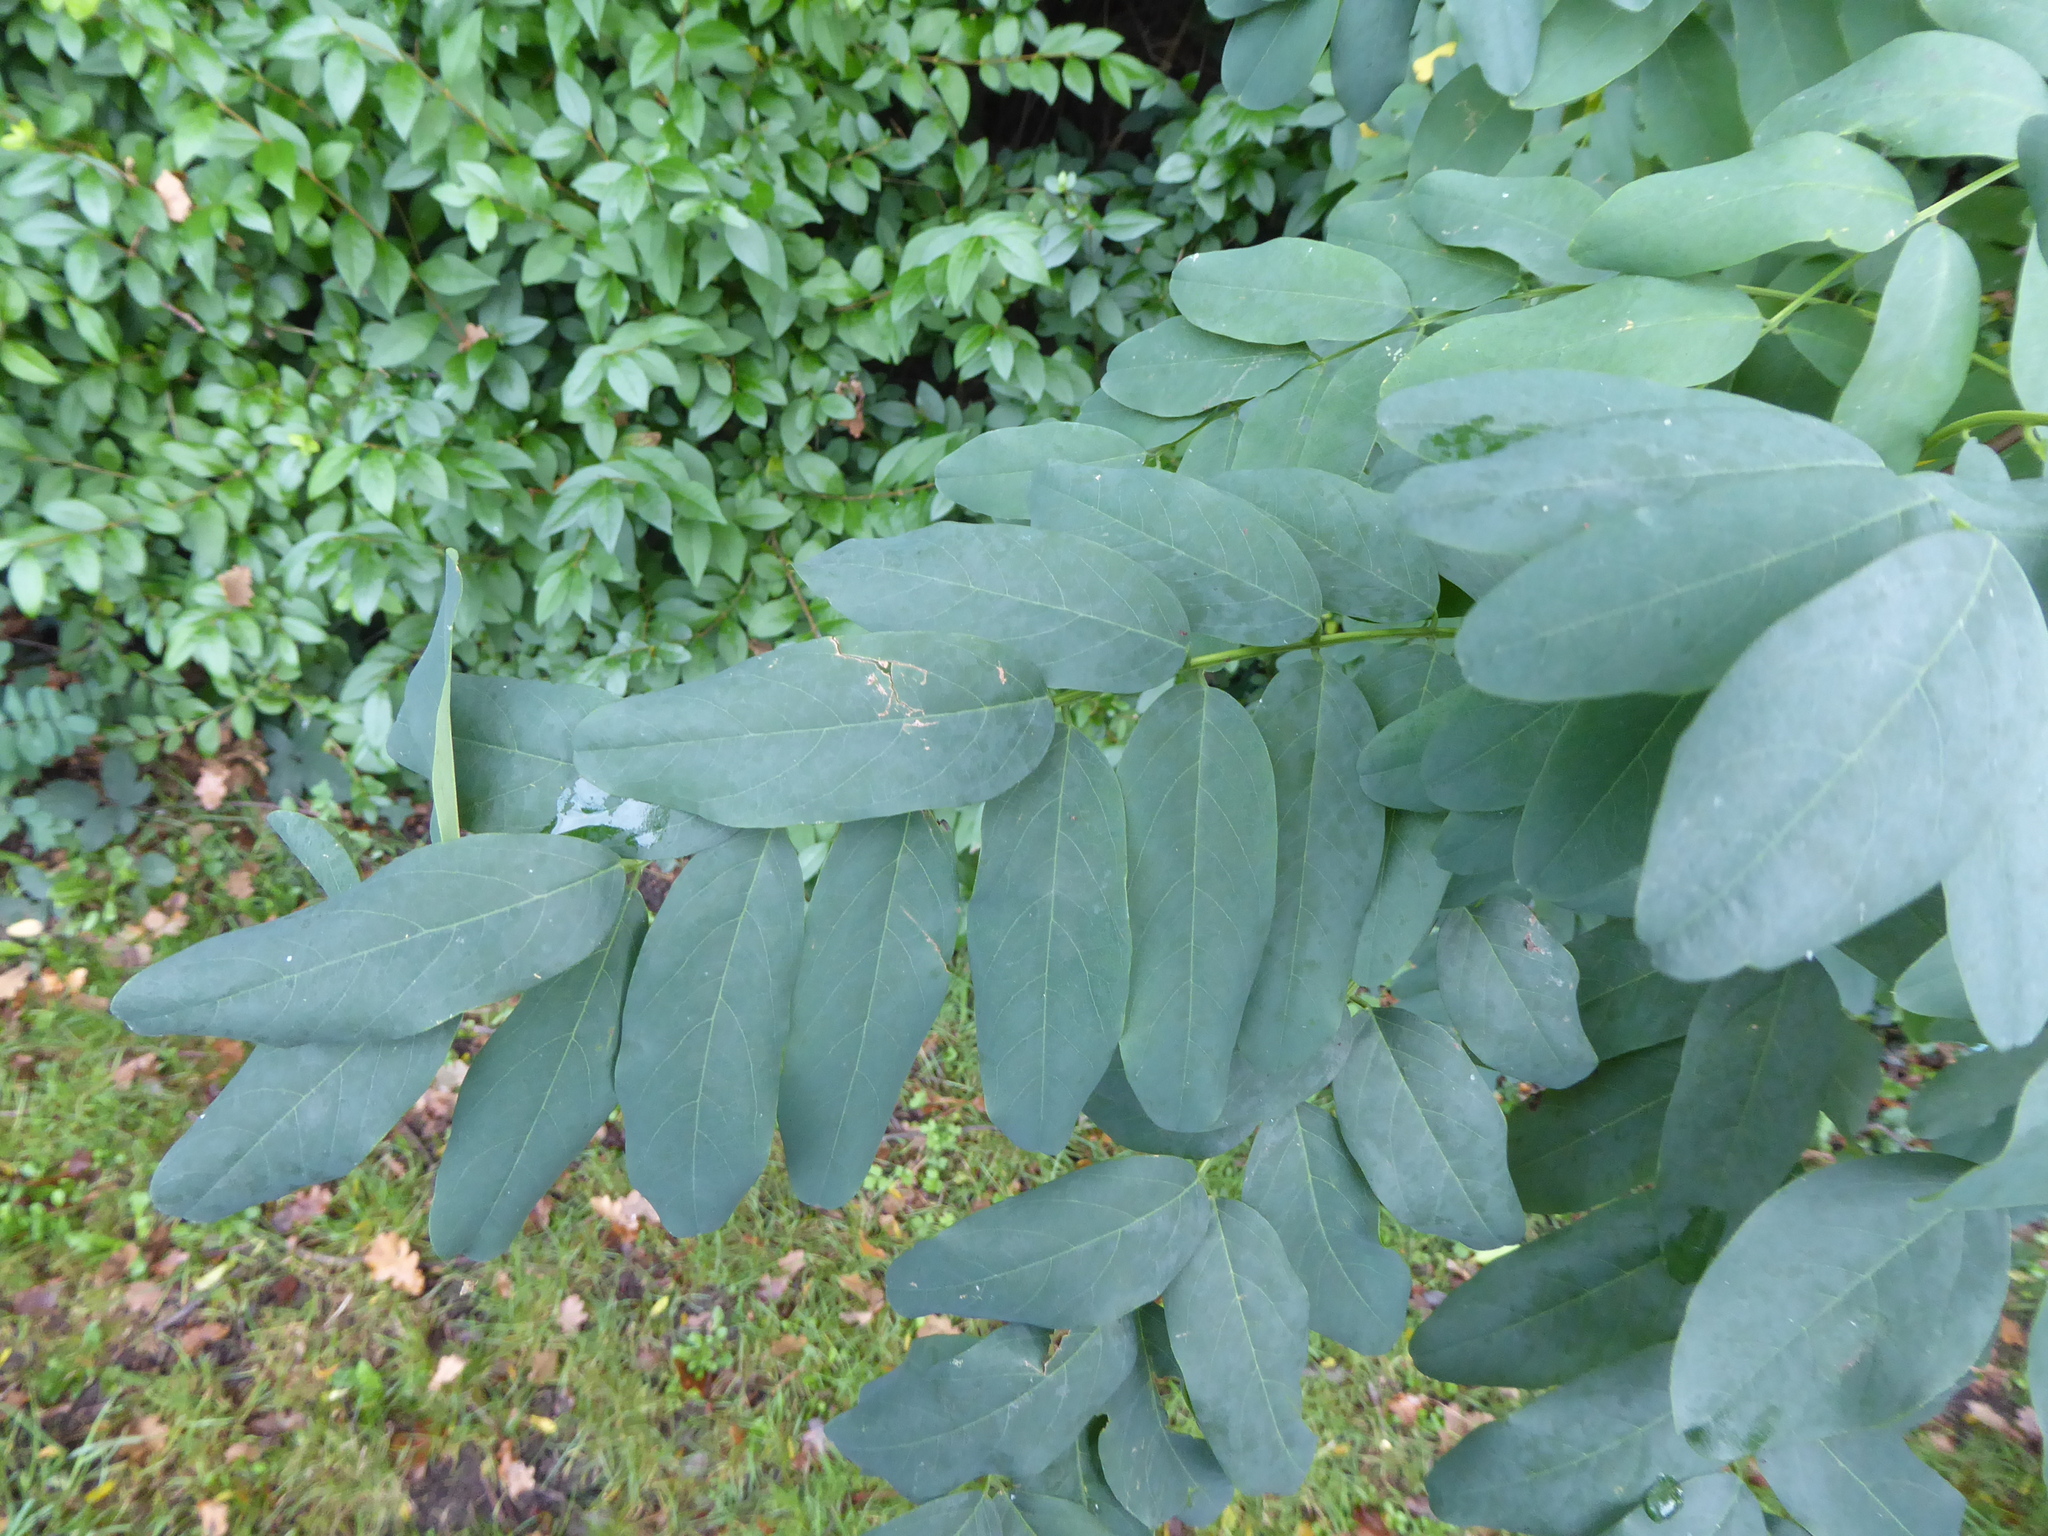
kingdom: Plantae
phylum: Tracheophyta
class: Magnoliopsida
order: Fabales
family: Fabaceae
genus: Robinia
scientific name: Robinia pseudoacacia
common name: Black locust
